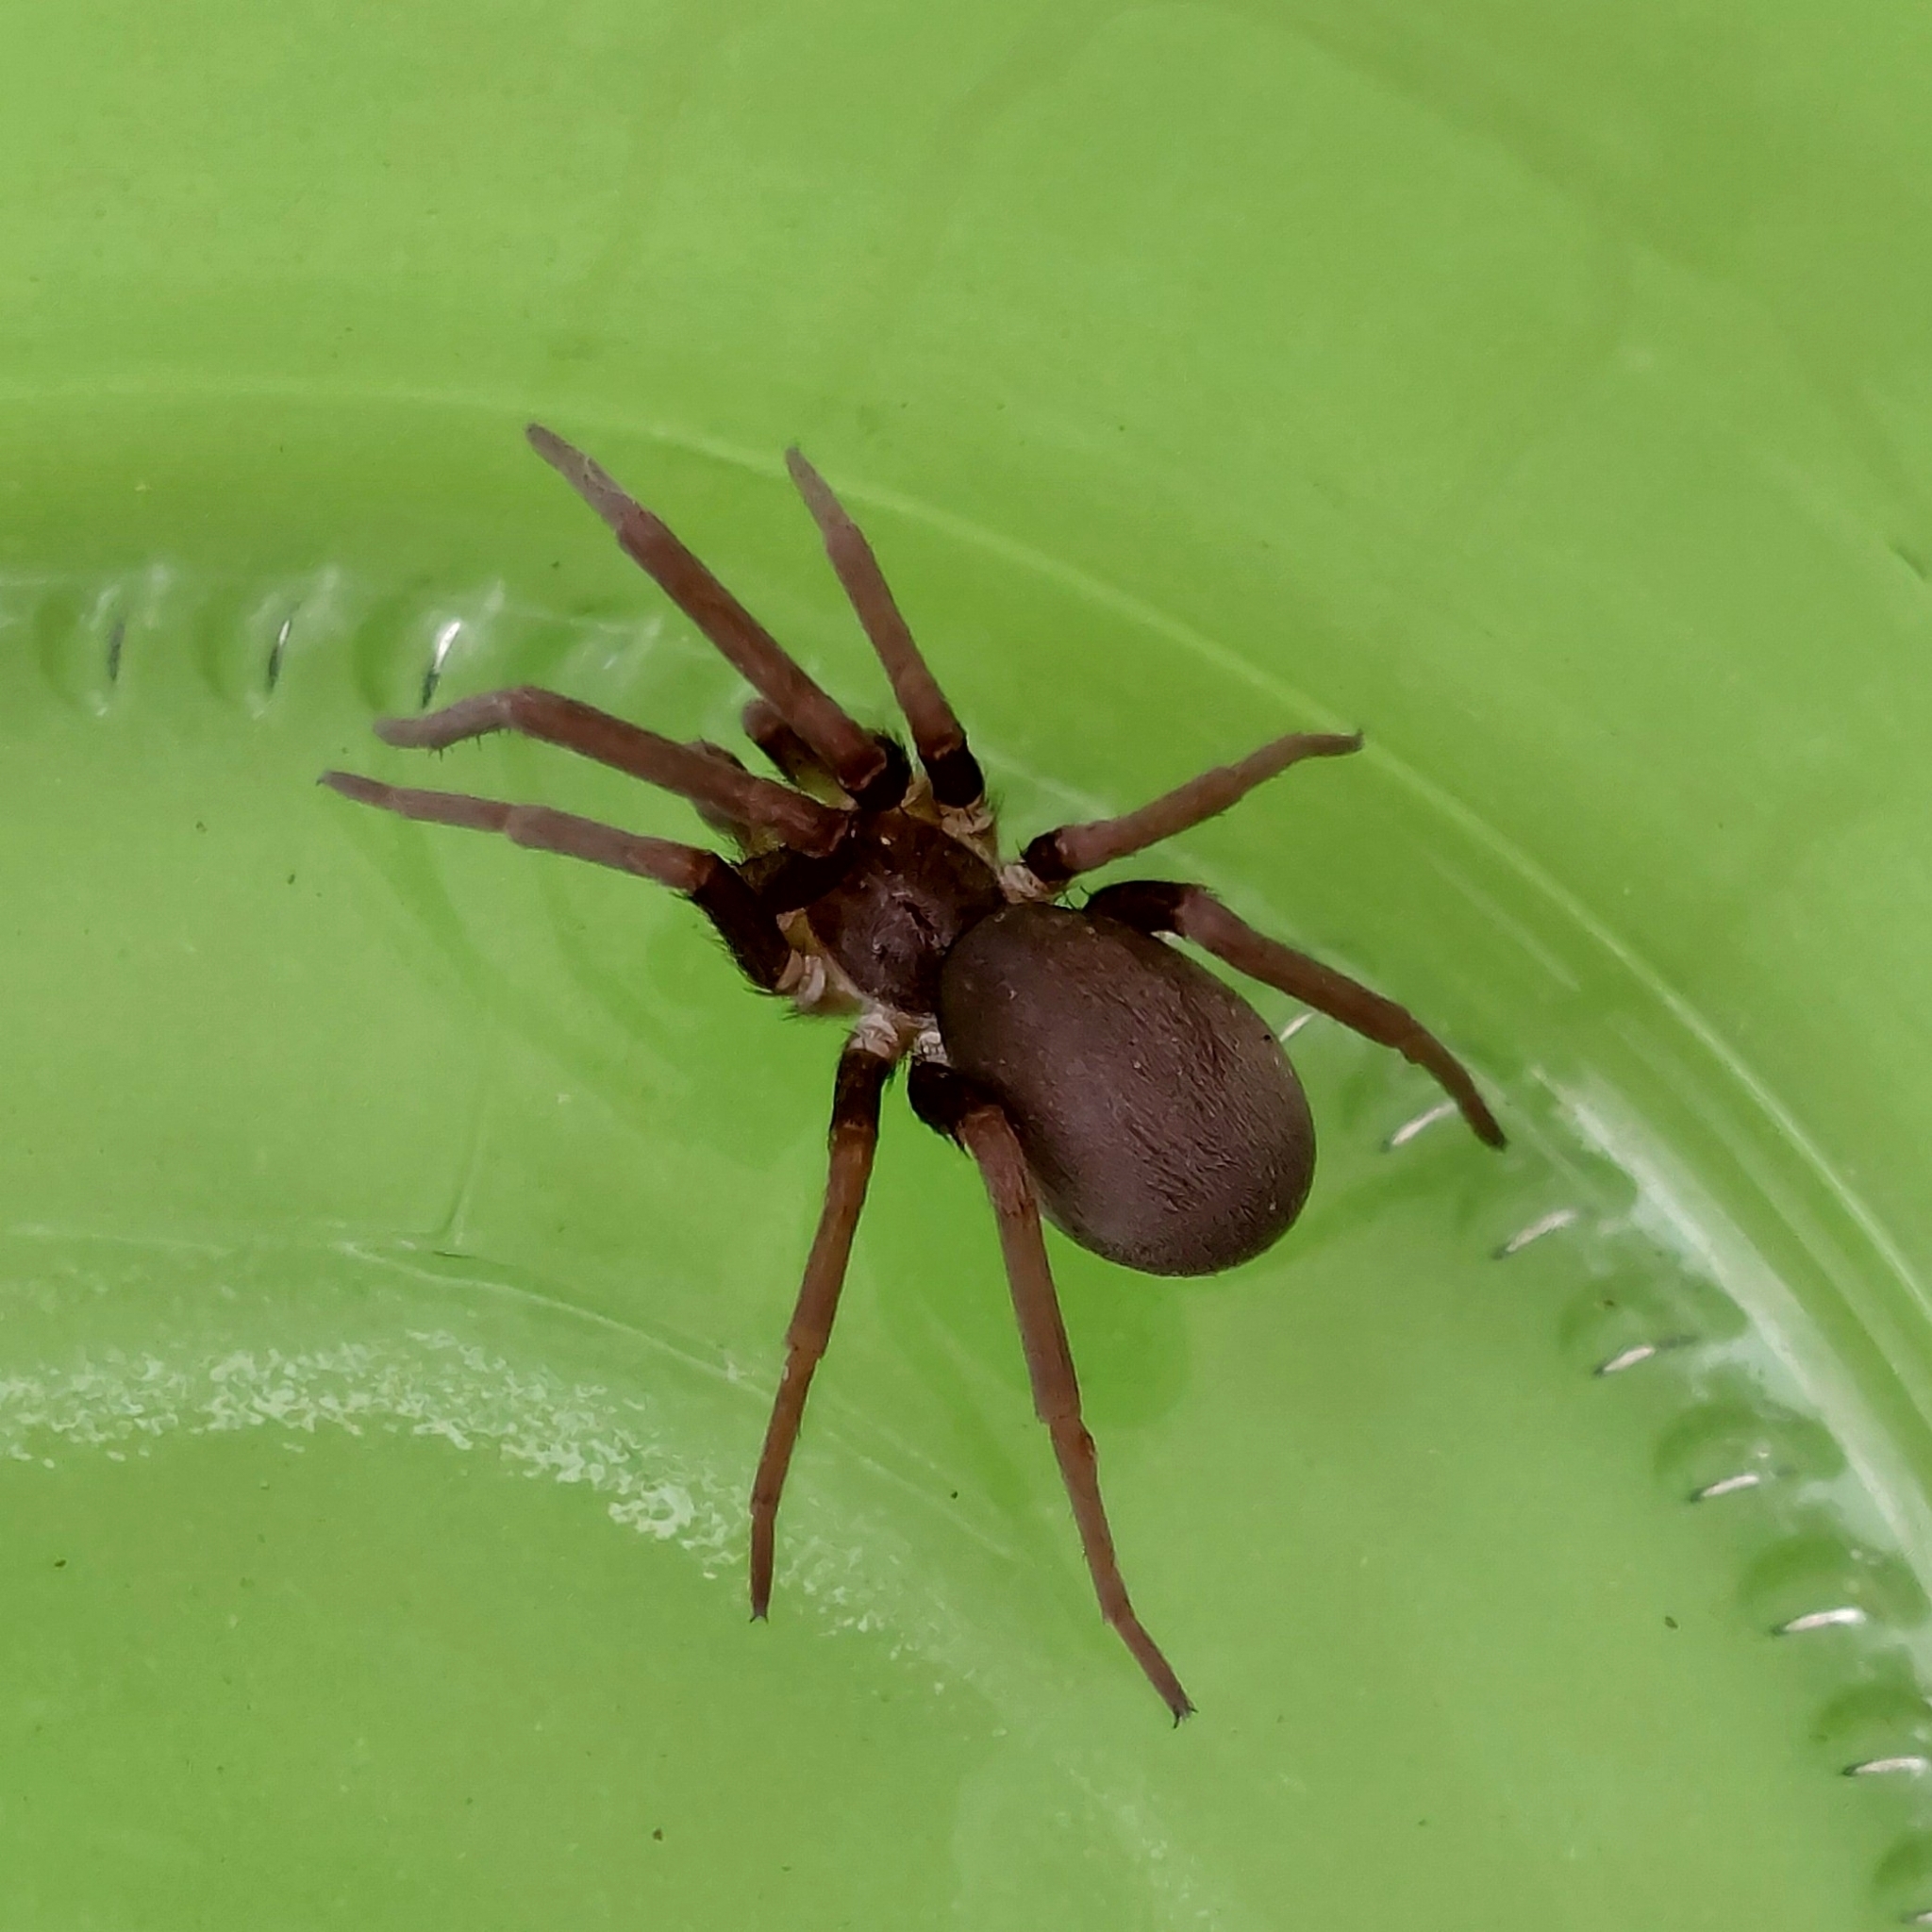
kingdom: Animalia
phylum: Arthropoda
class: Arachnida
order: Araneae
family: Filistatidae
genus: Kukulcania
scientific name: Kukulcania hibernalis
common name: Crevice weaver
